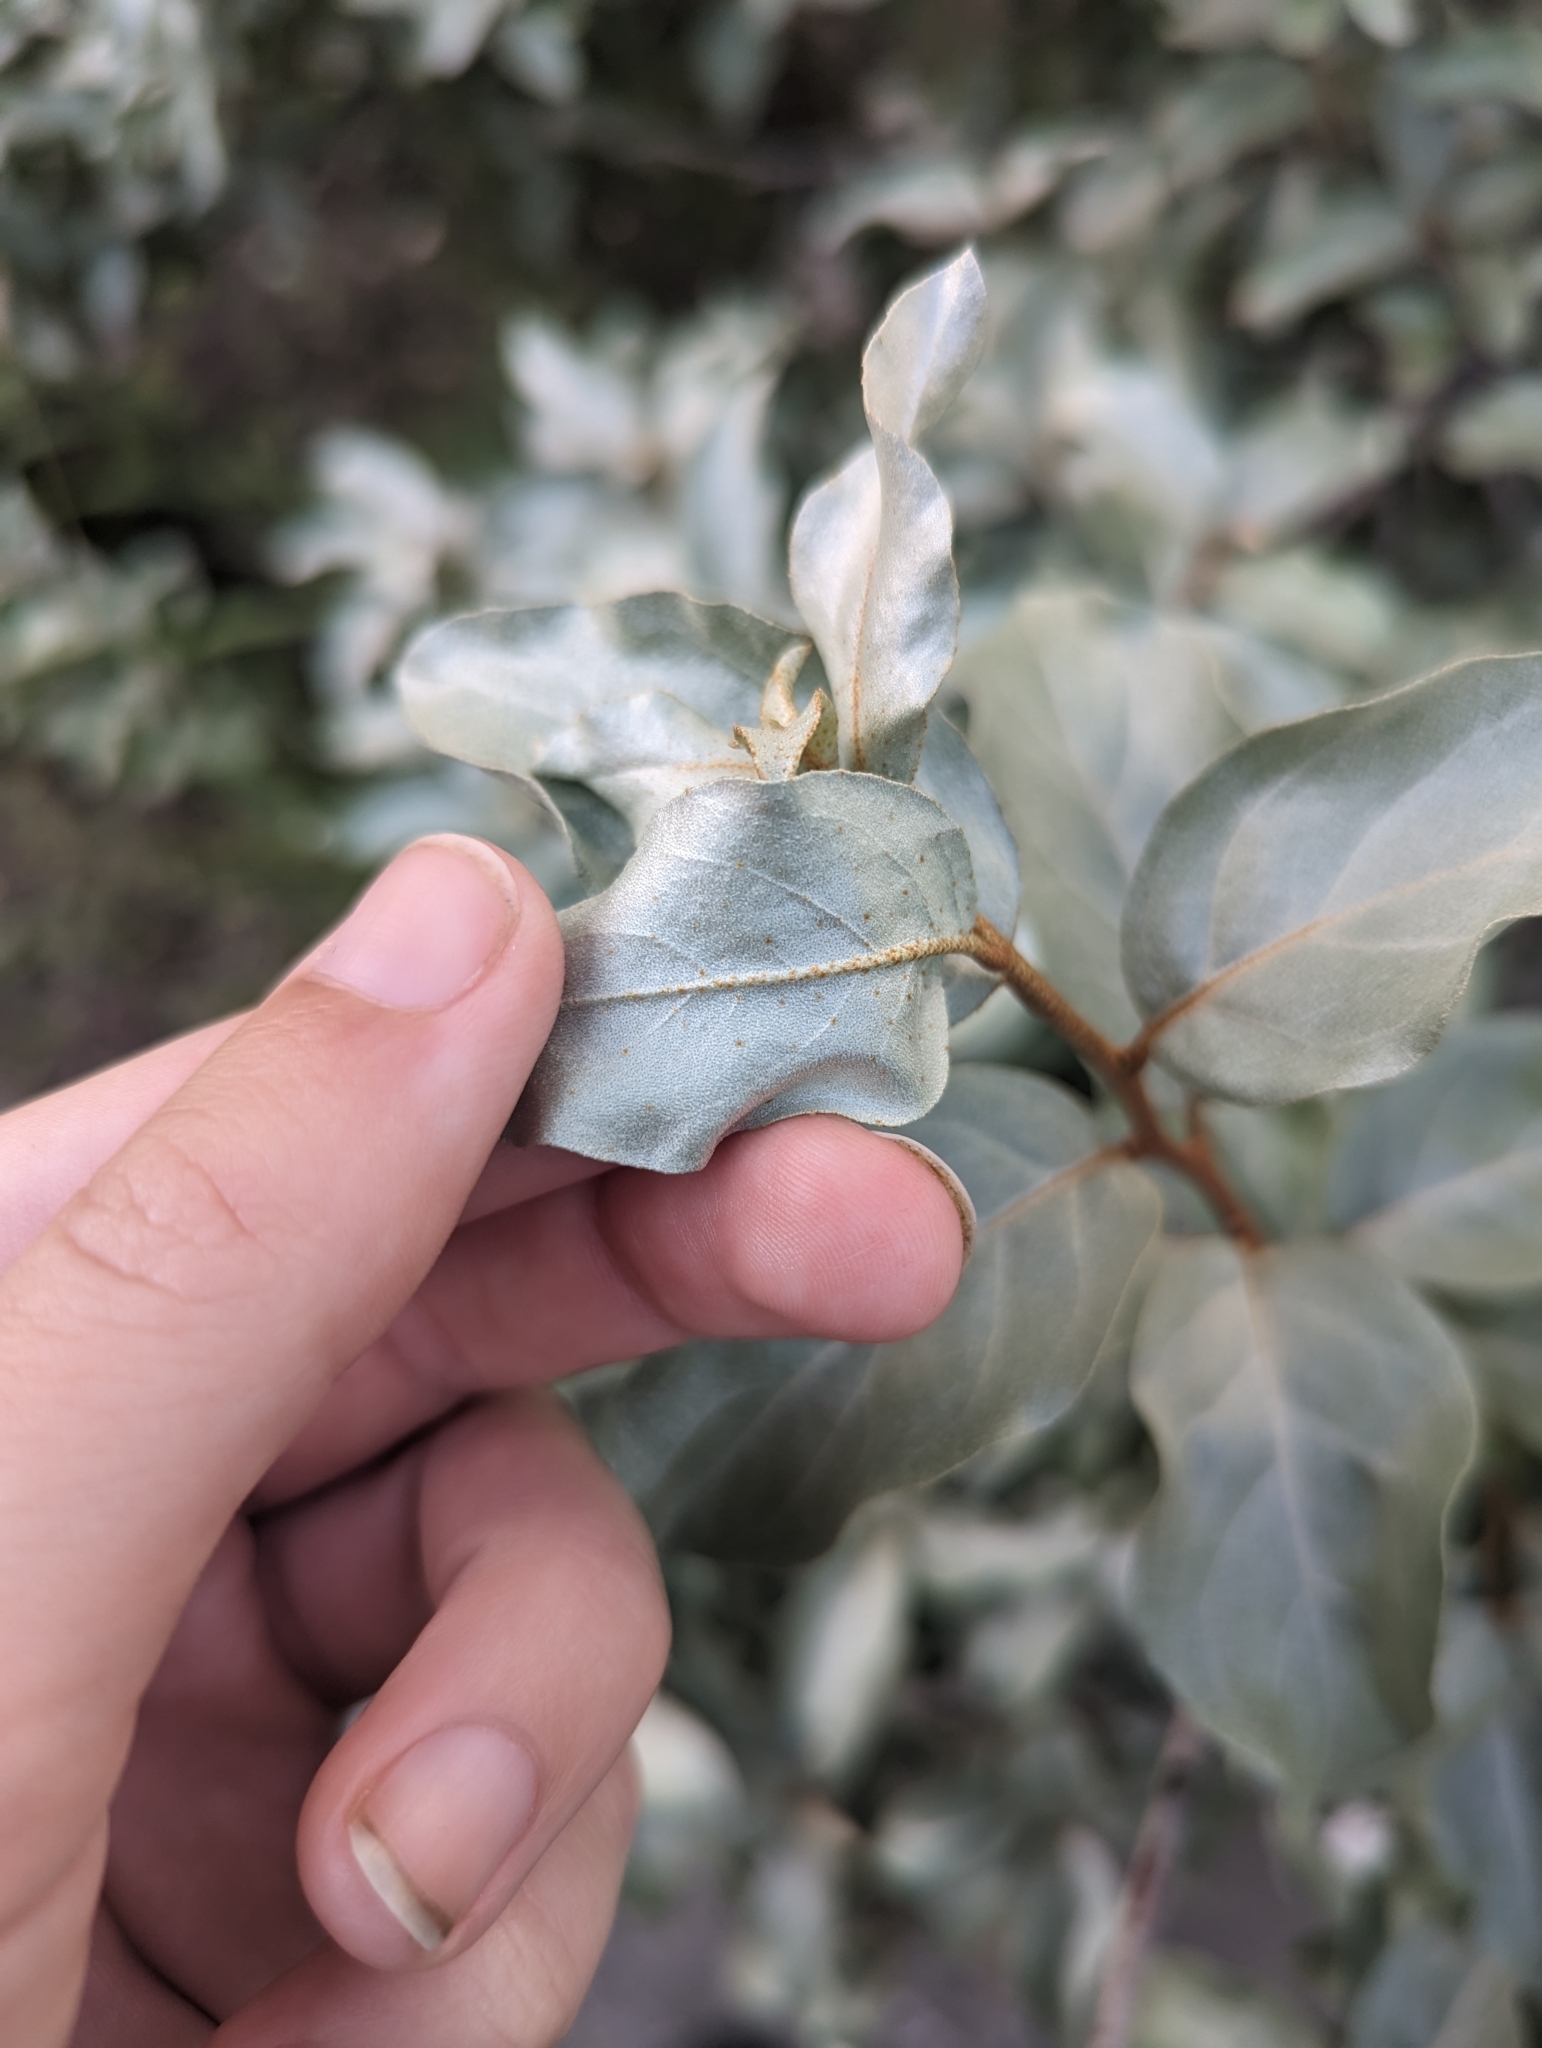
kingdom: Plantae
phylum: Tracheophyta
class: Magnoliopsida
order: Rosales
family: Elaeagnaceae
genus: Elaeagnus
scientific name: Elaeagnus commutata
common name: Silverberry
